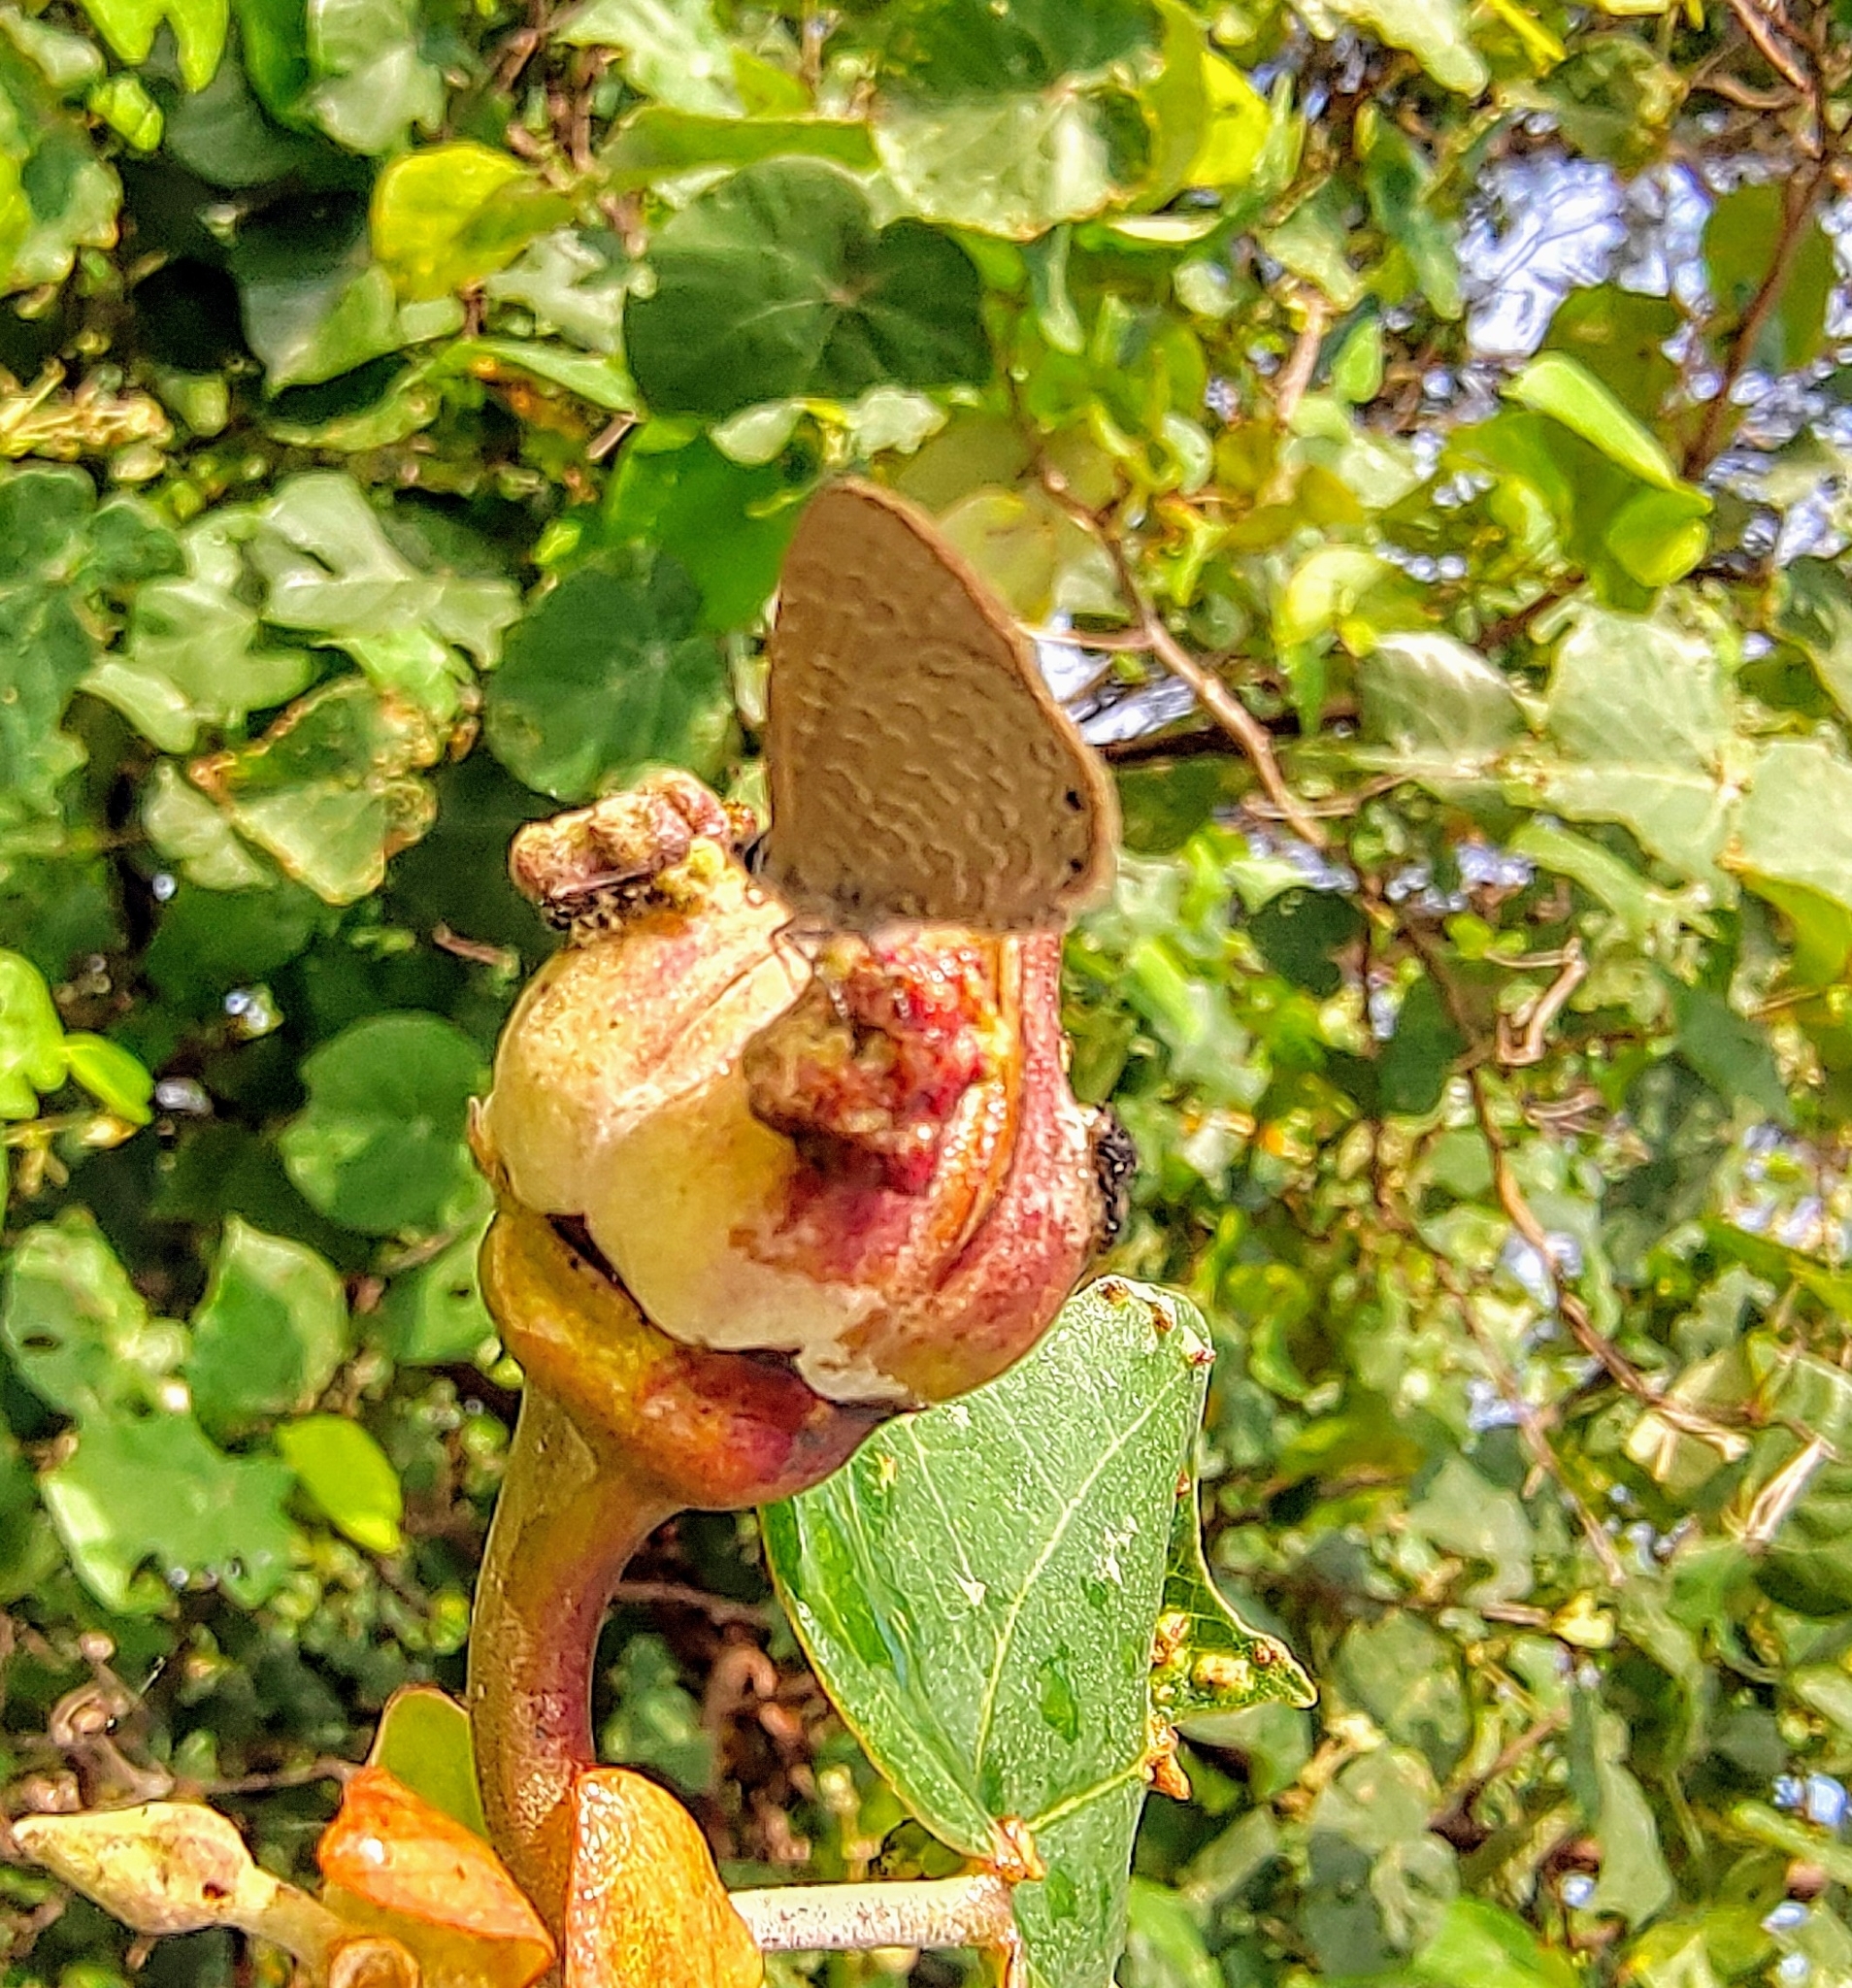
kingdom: Animalia
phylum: Arthropoda
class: Insecta
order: Lepidoptera
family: Lycaenidae
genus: Petrelaea
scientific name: Petrelaea dana
